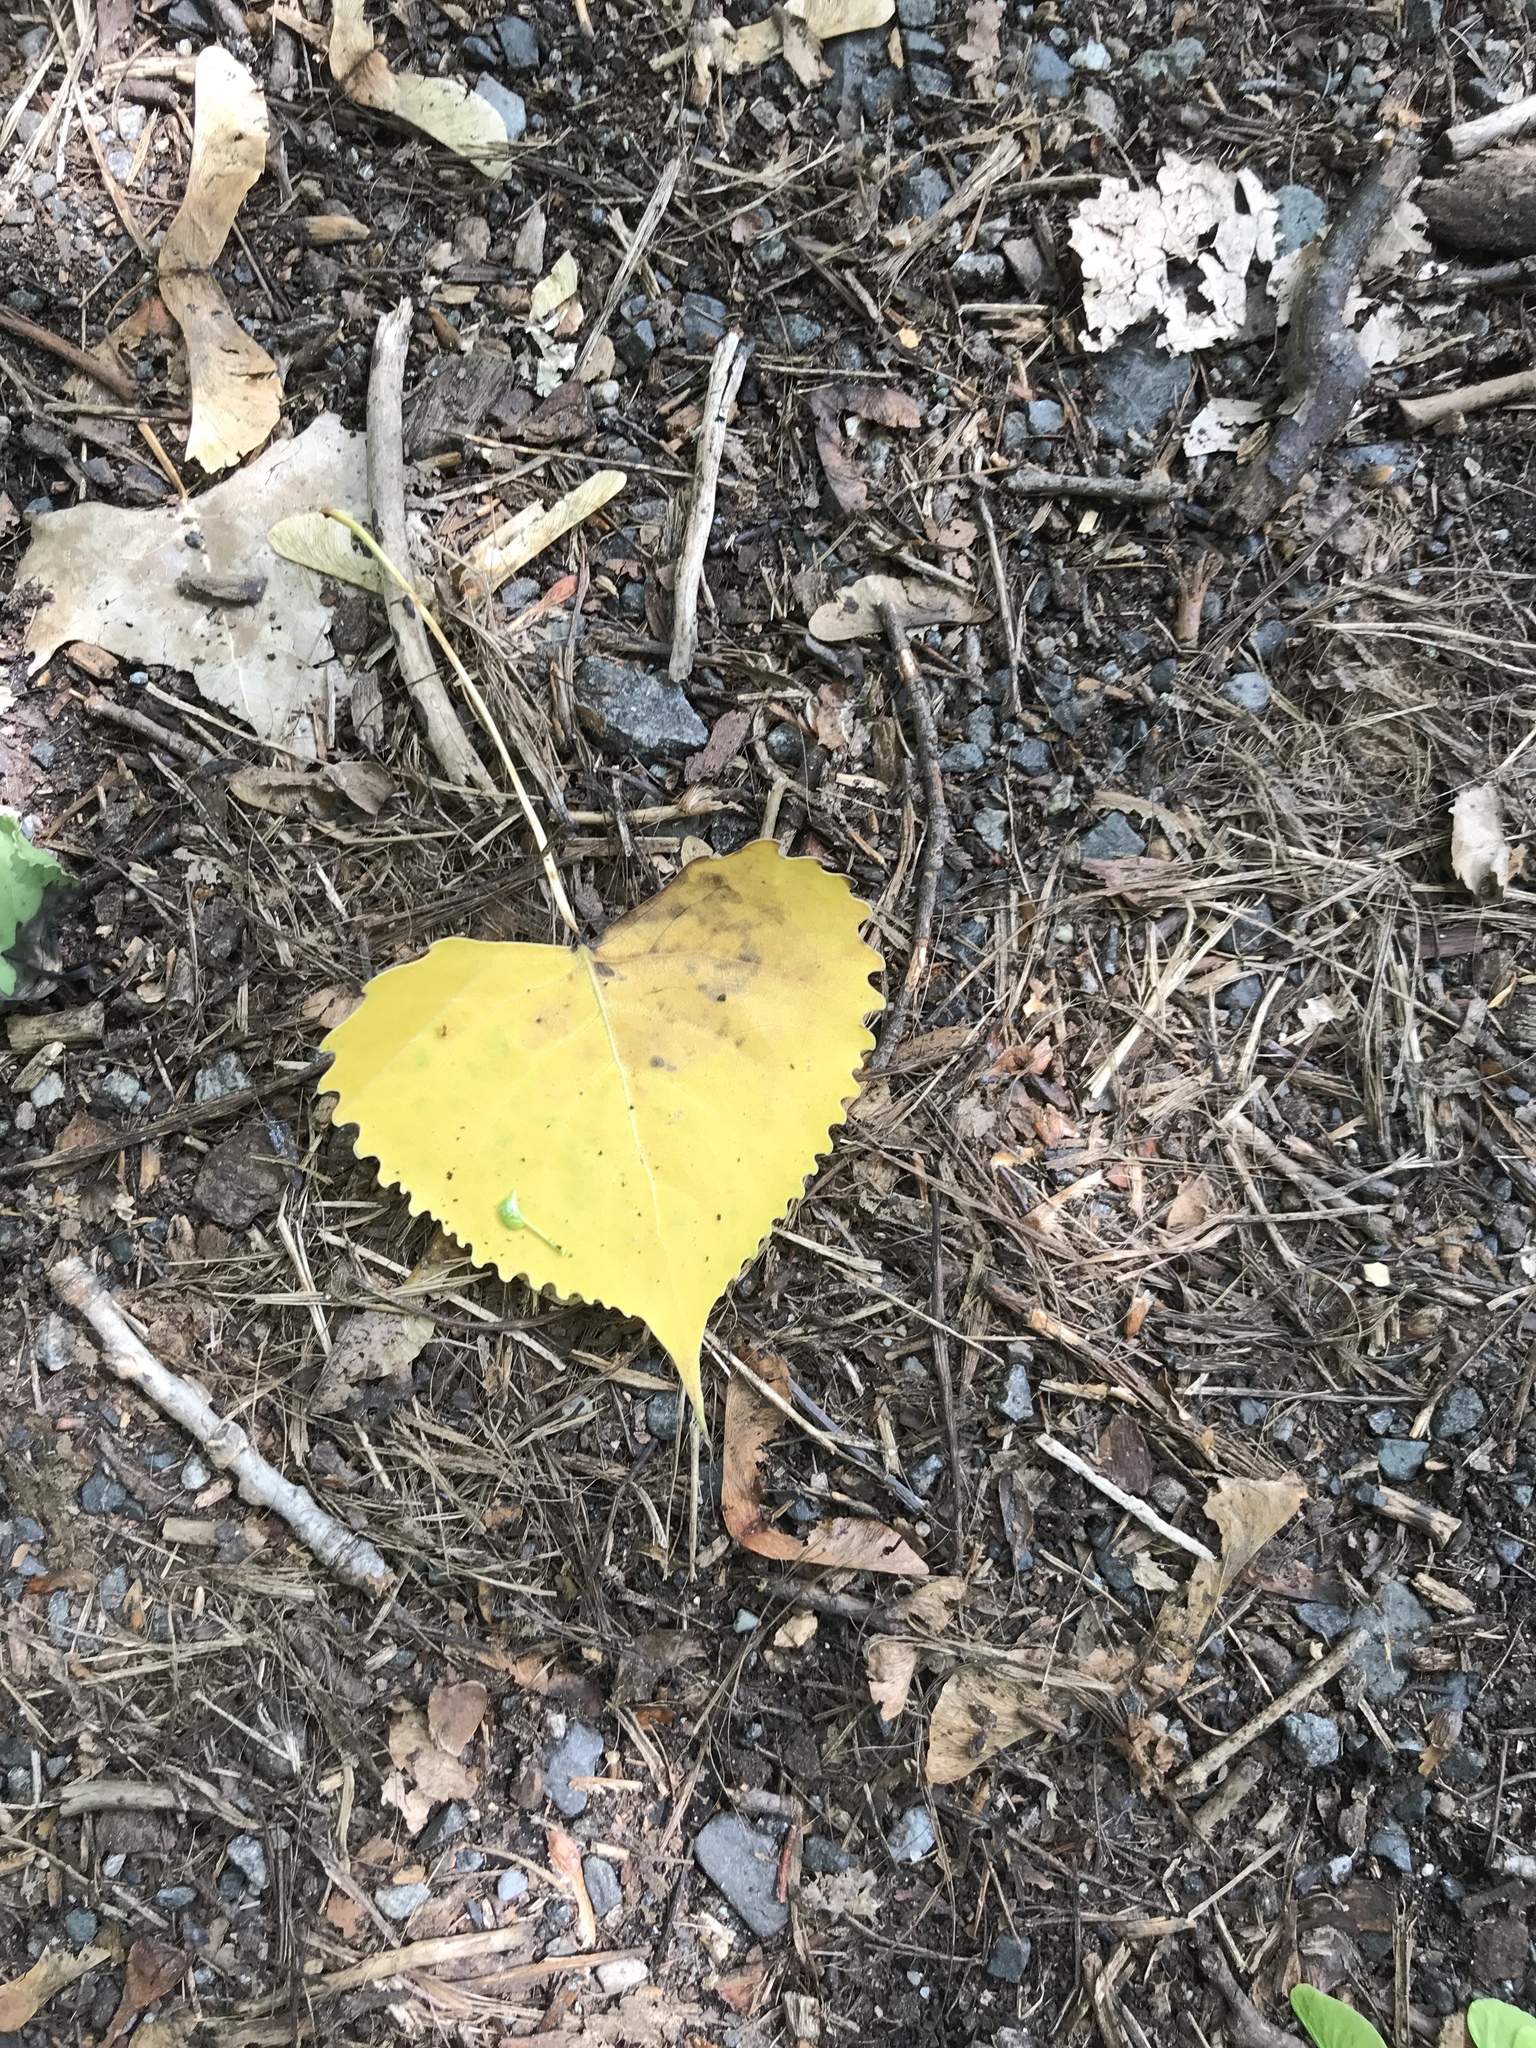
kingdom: Plantae
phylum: Tracheophyta
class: Magnoliopsida
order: Malpighiales
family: Salicaceae
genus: Populus
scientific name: Populus deltoides
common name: Eastern cottonwood
